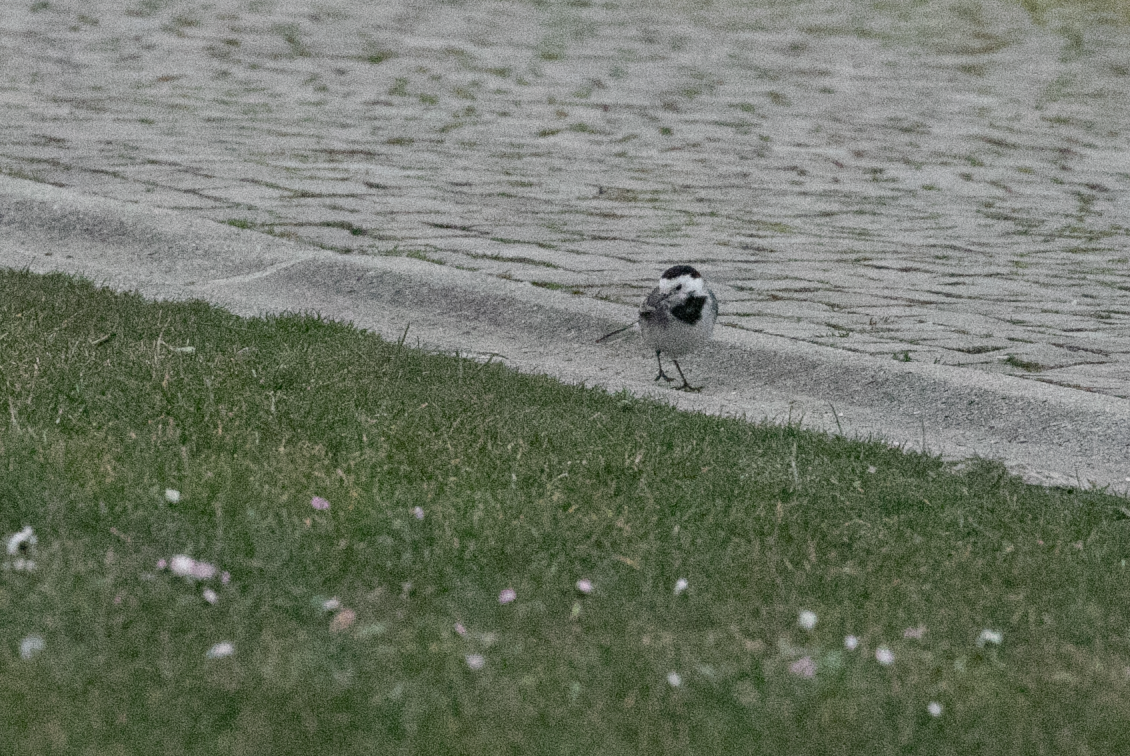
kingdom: Animalia
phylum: Chordata
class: Aves
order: Passeriformes
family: Motacillidae
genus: Motacilla
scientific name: Motacilla alba
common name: White wagtail
